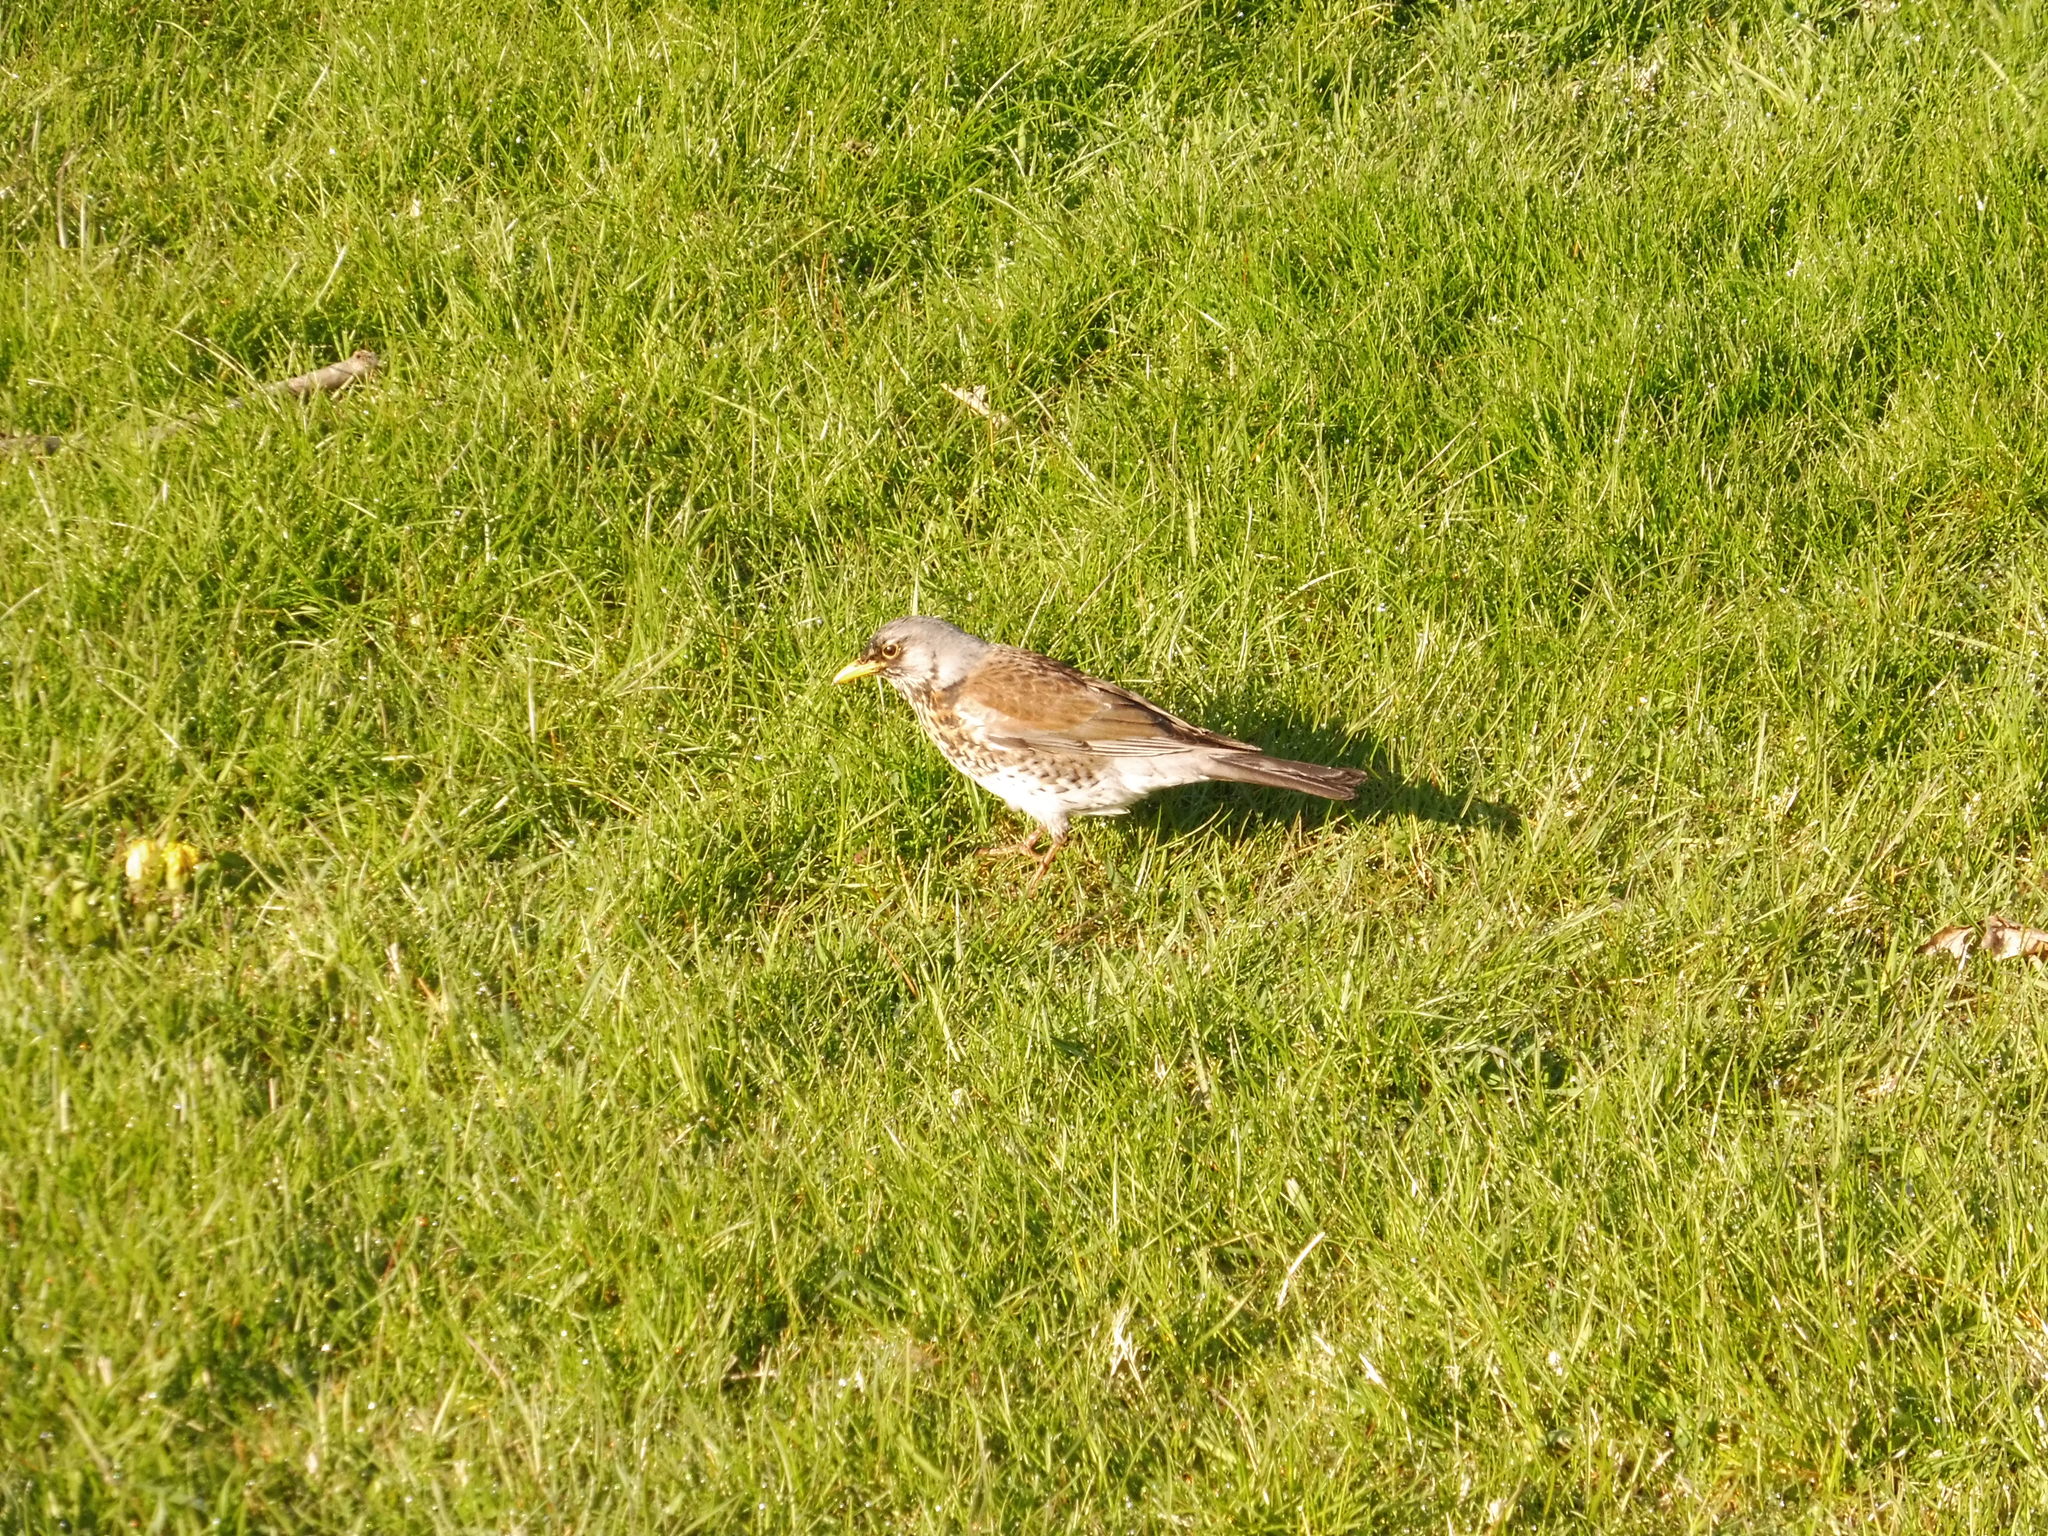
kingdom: Animalia
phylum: Chordata
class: Aves
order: Passeriformes
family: Turdidae
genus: Turdus
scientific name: Turdus pilaris
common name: Fieldfare
